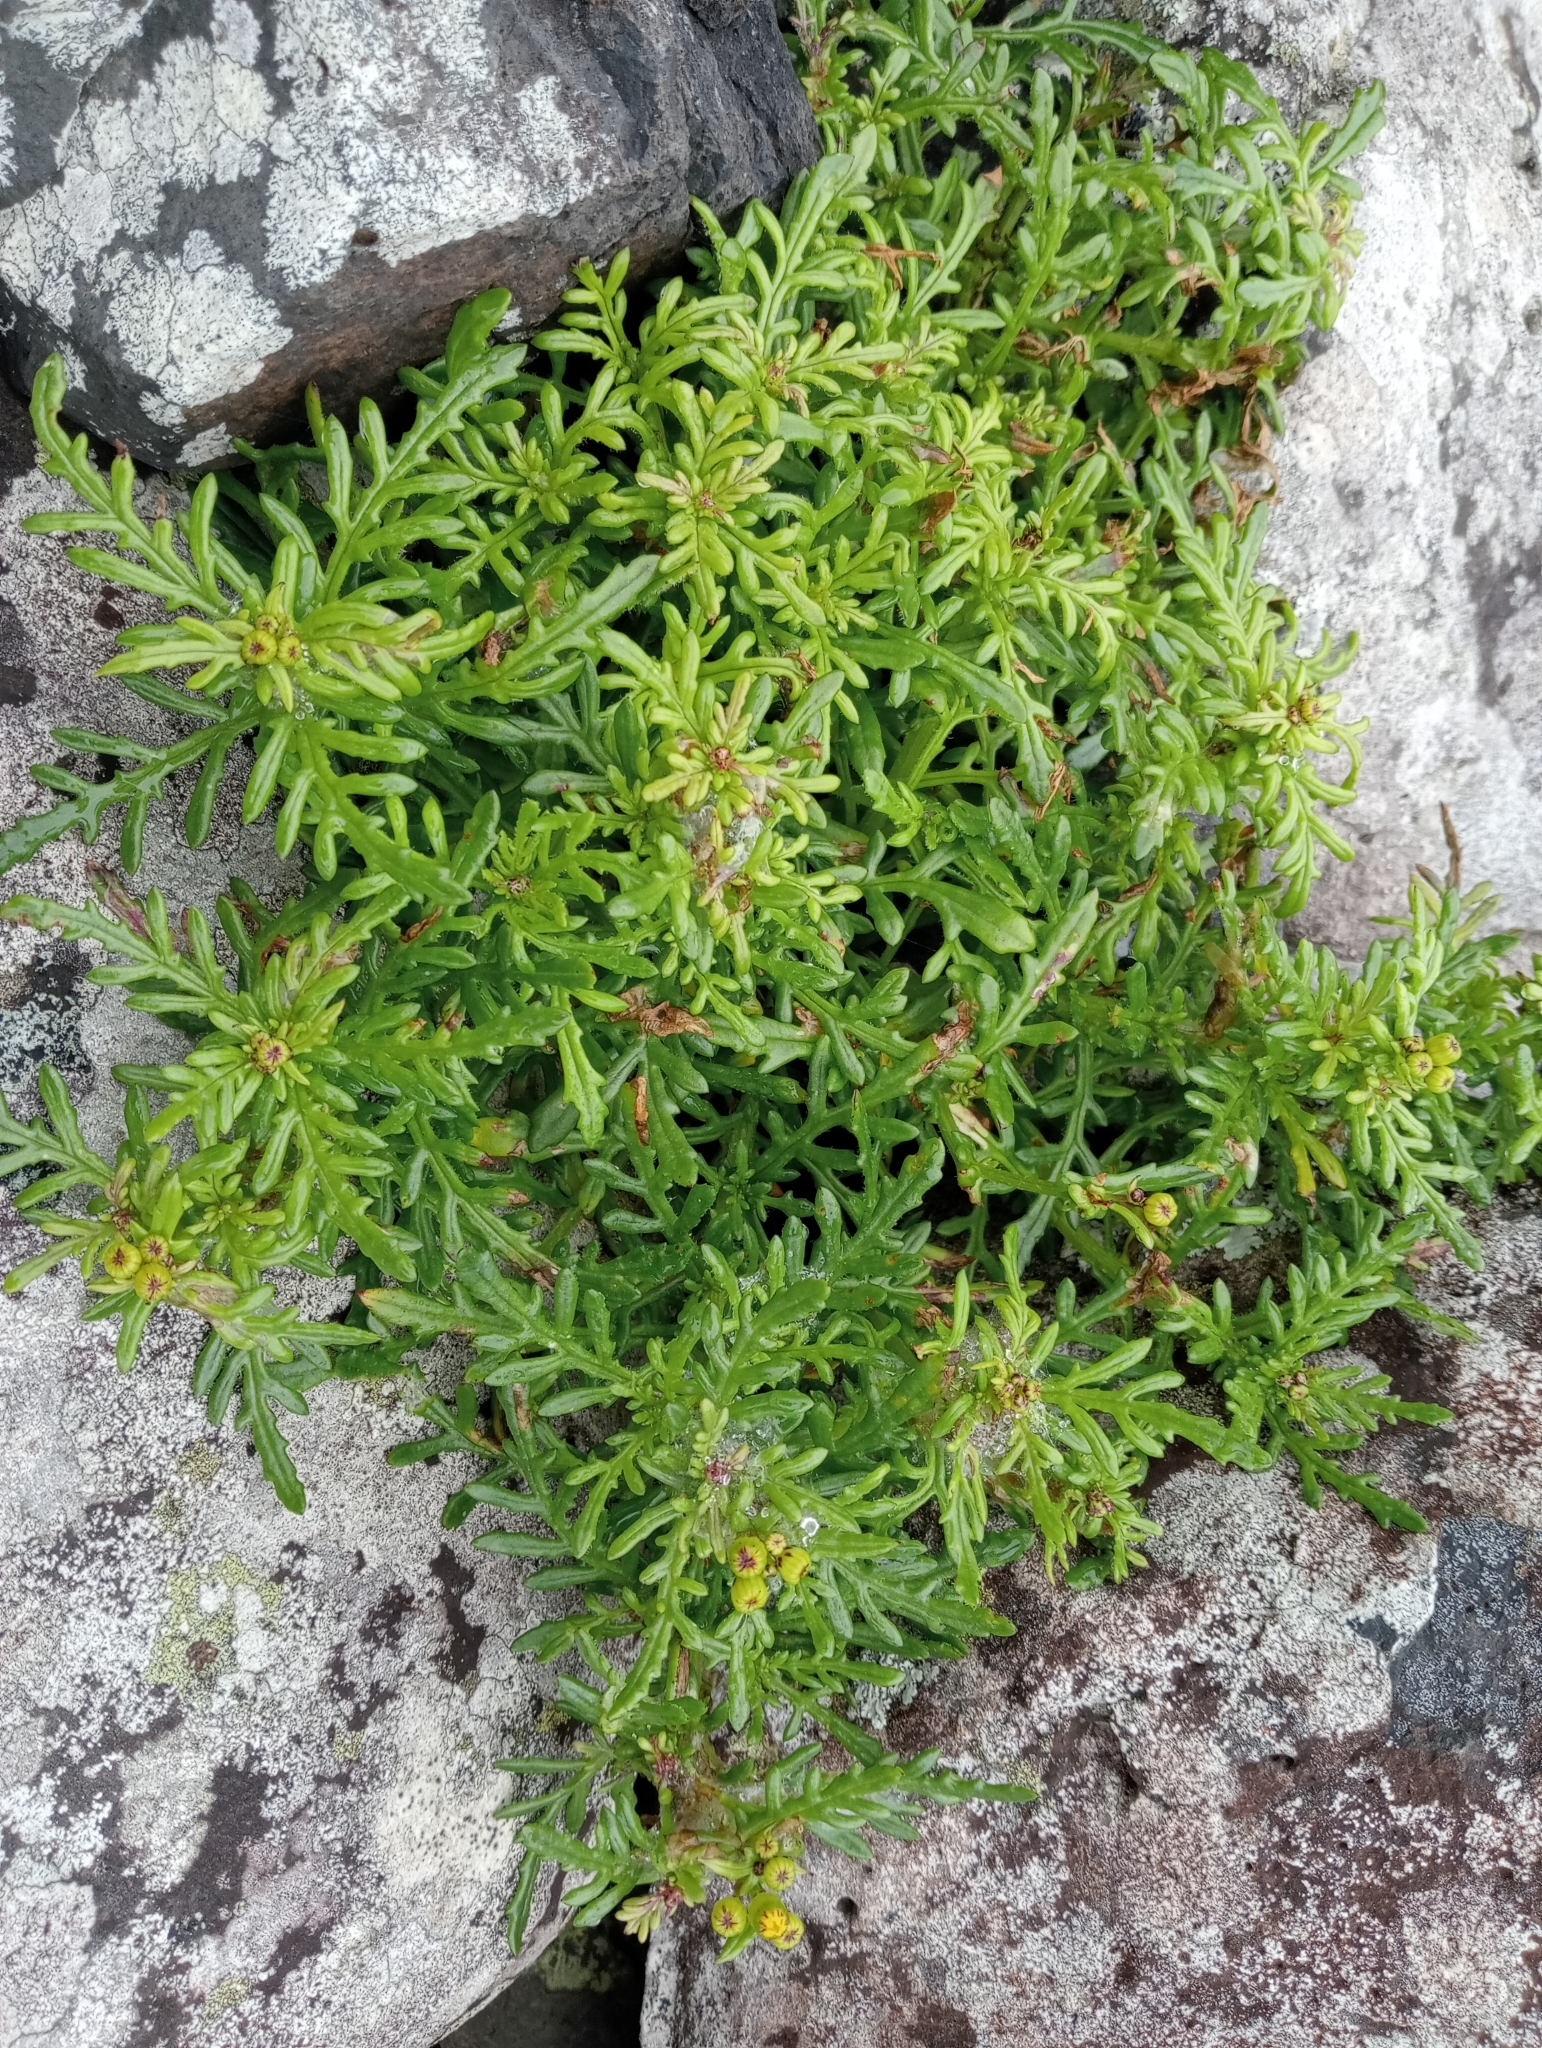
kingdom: Plantae
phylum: Tracheophyta
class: Magnoliopsida
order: Asterales
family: Asteraceae
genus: Senecio
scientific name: Senecio lautus
